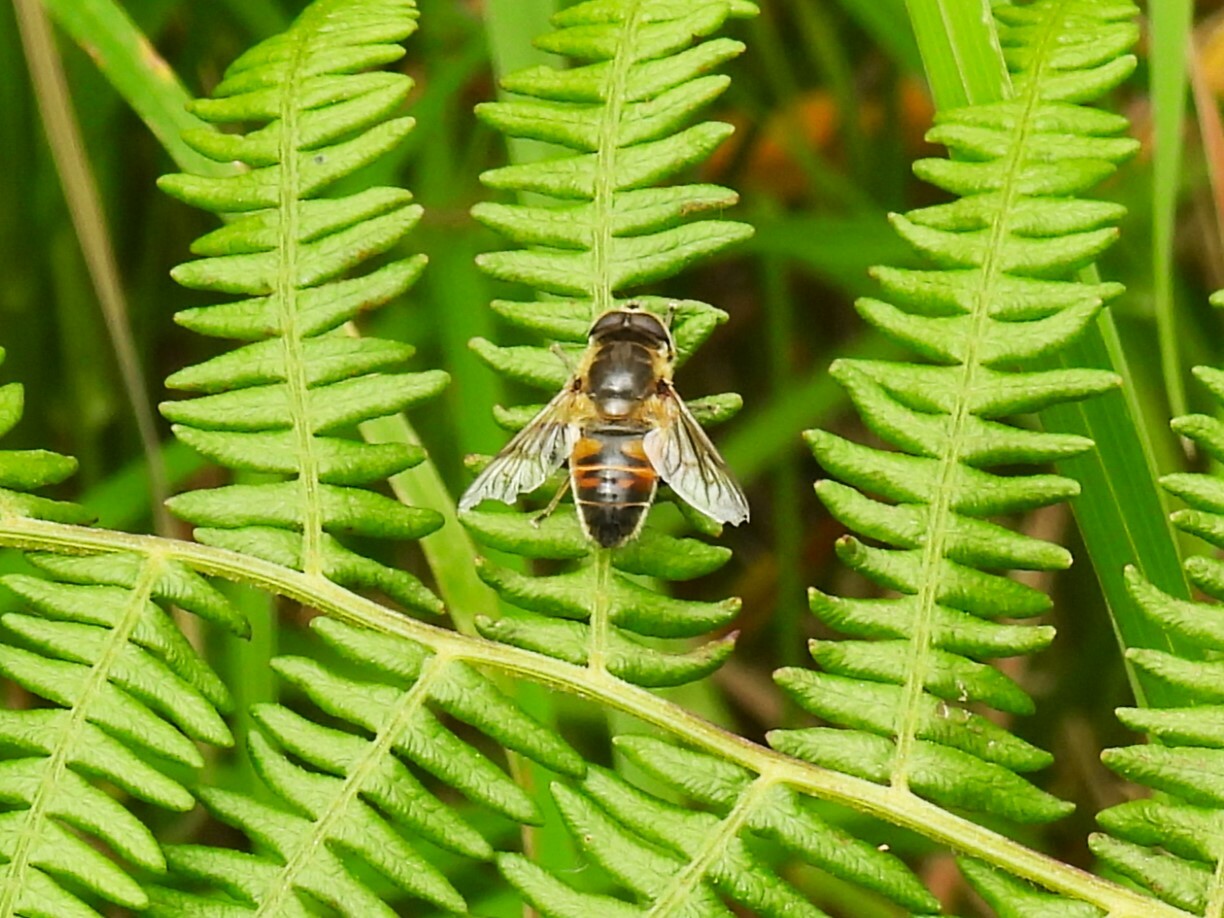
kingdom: Animalia
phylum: Arthropoda
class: Insecta
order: Diptera
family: Syrphidae
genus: Eristalis
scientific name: Eristalis tenax
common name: Drone fly
